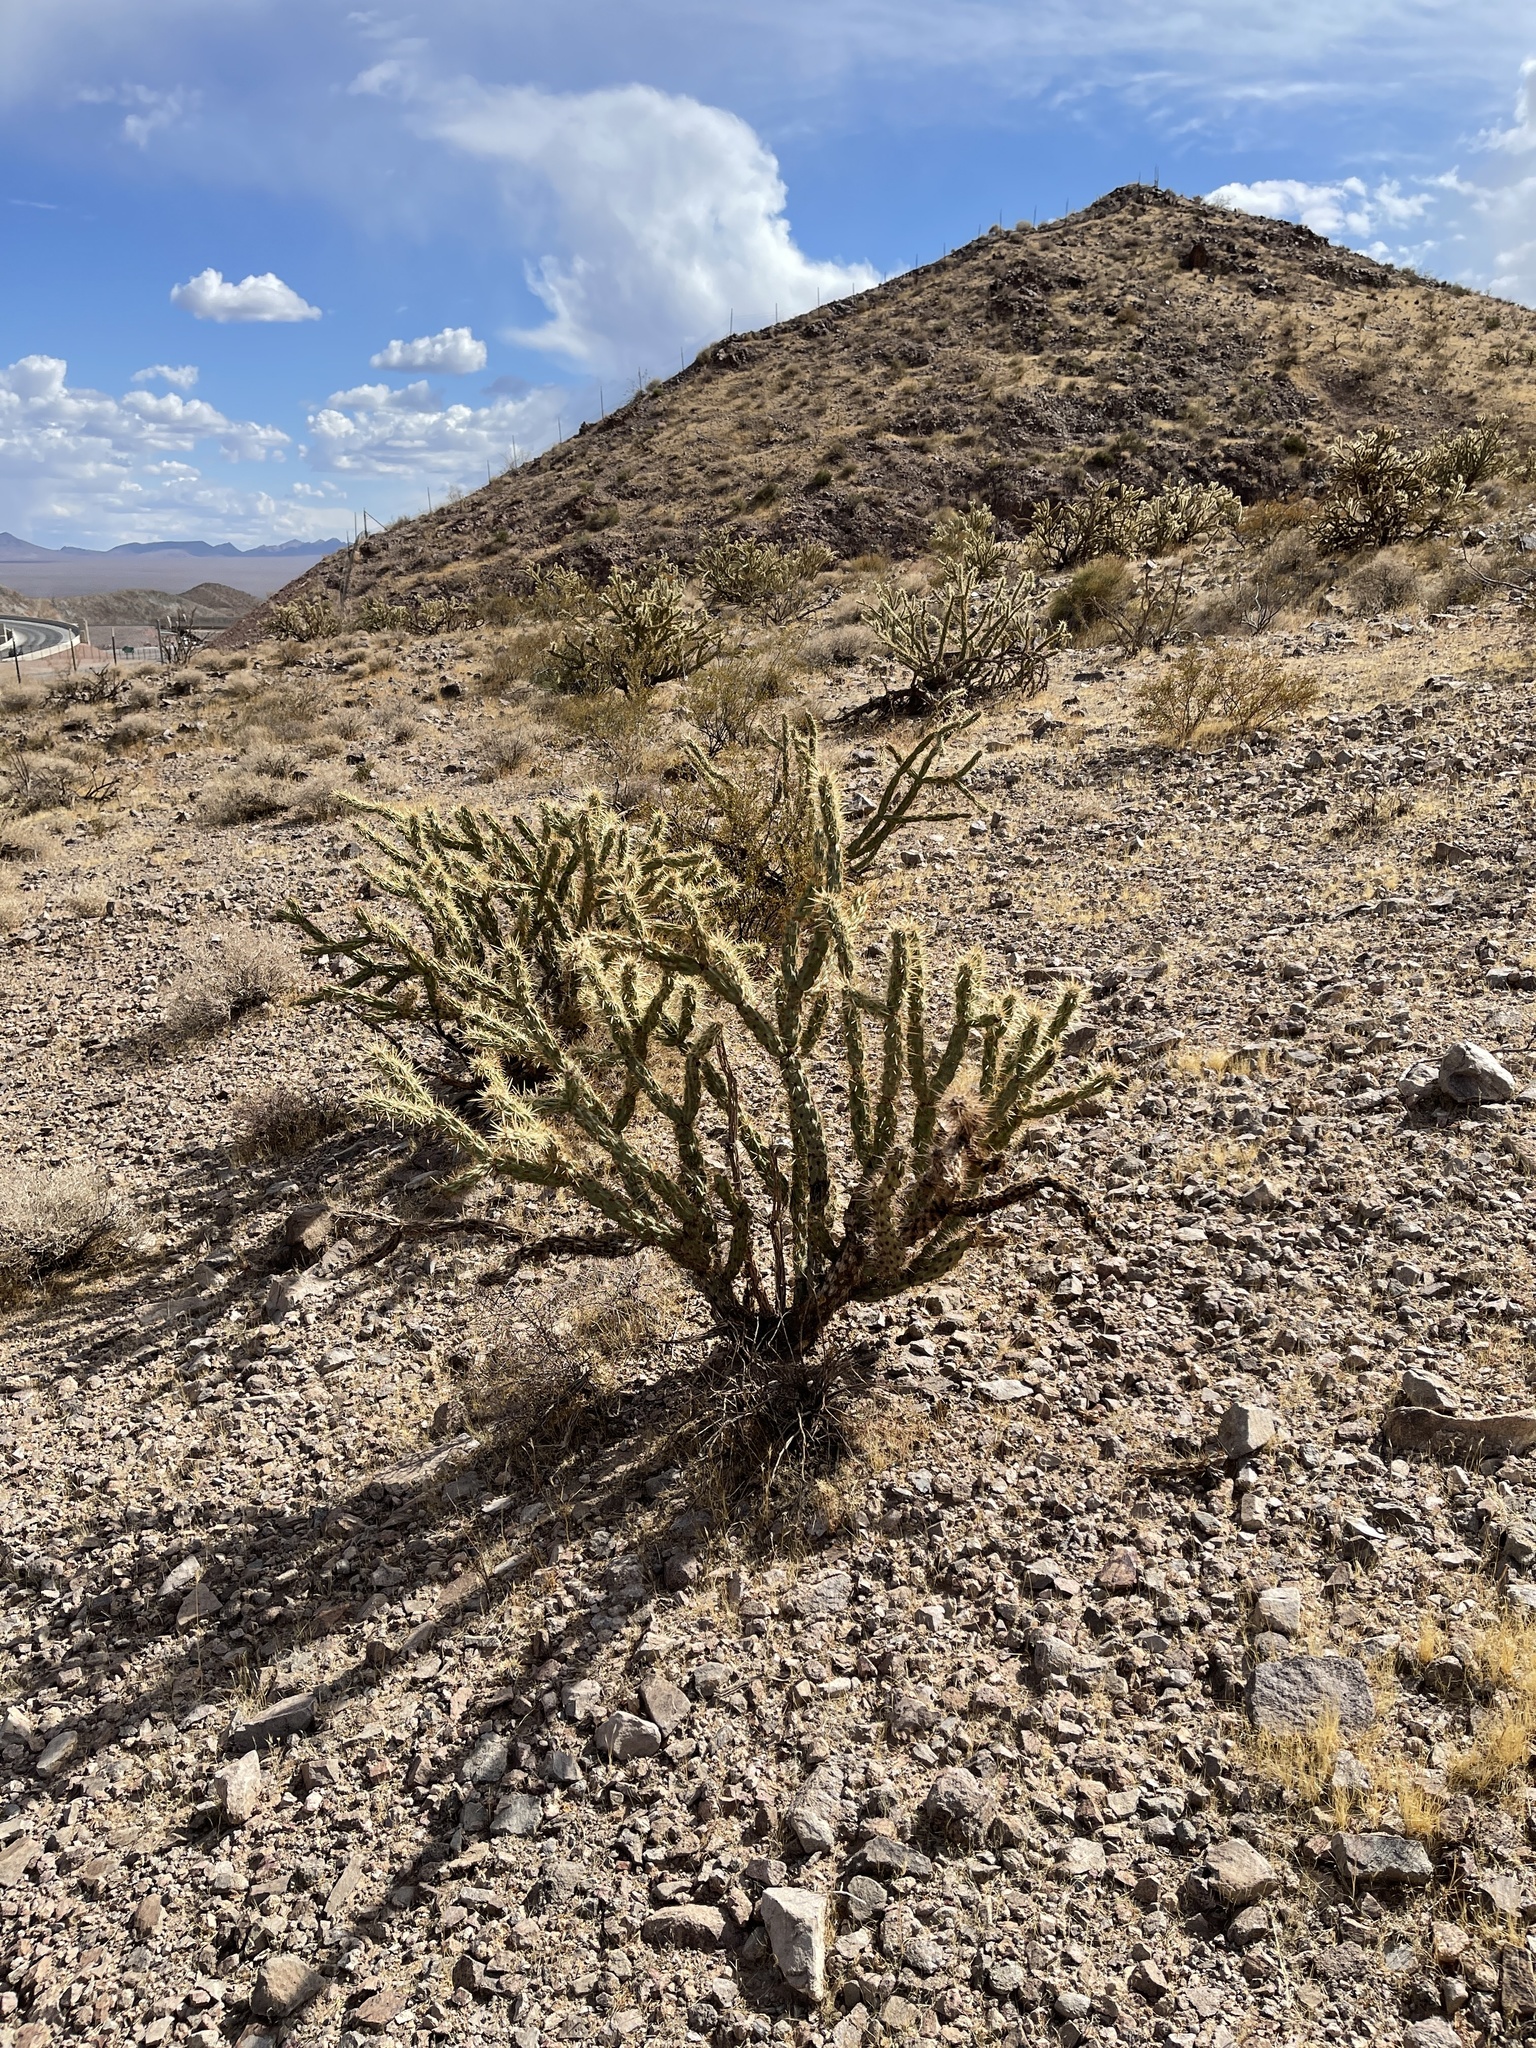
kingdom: Plantae
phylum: Tracheophyta
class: Magnoliopsida
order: Caryophyllales
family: Cactaceae
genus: Cylindropuntia
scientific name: Cylindropuntia acanthocarpa
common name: Buckhorn cholla
